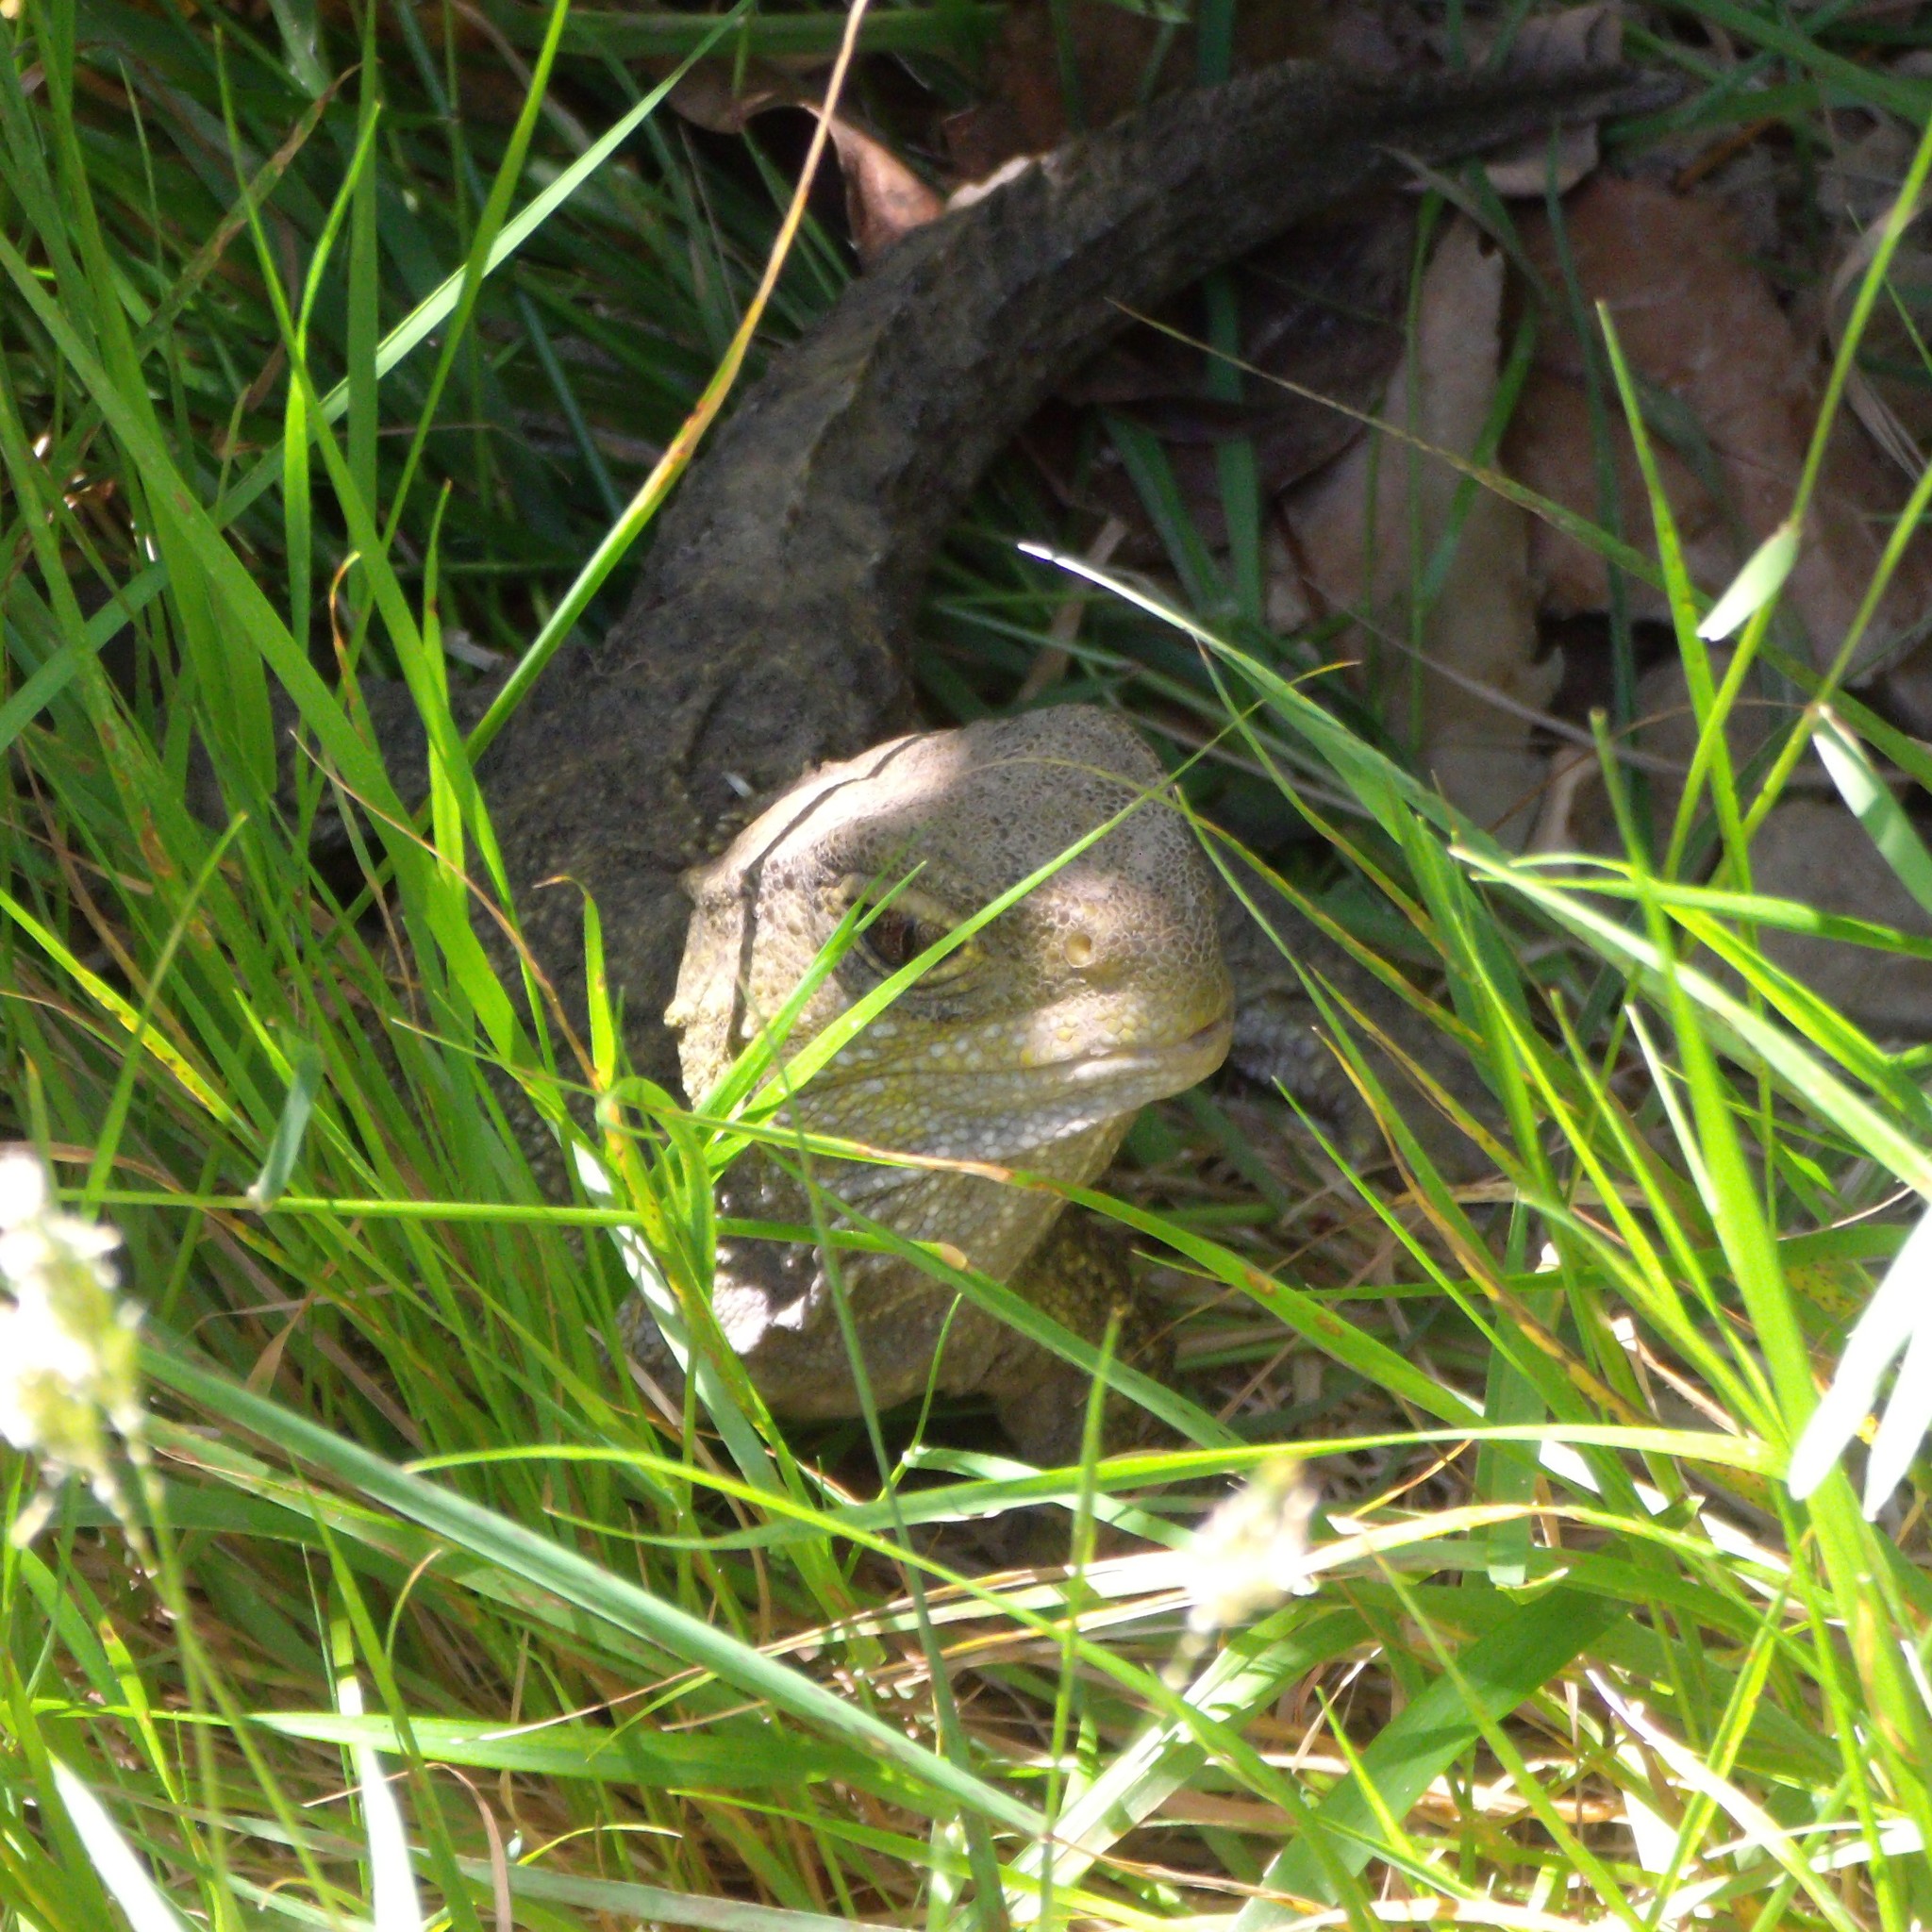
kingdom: Animalia
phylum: Chordata
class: Sphenodontia
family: Sphenodontidae
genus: Sphenodon
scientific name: Sphenodon punctatus
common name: Tuatara
